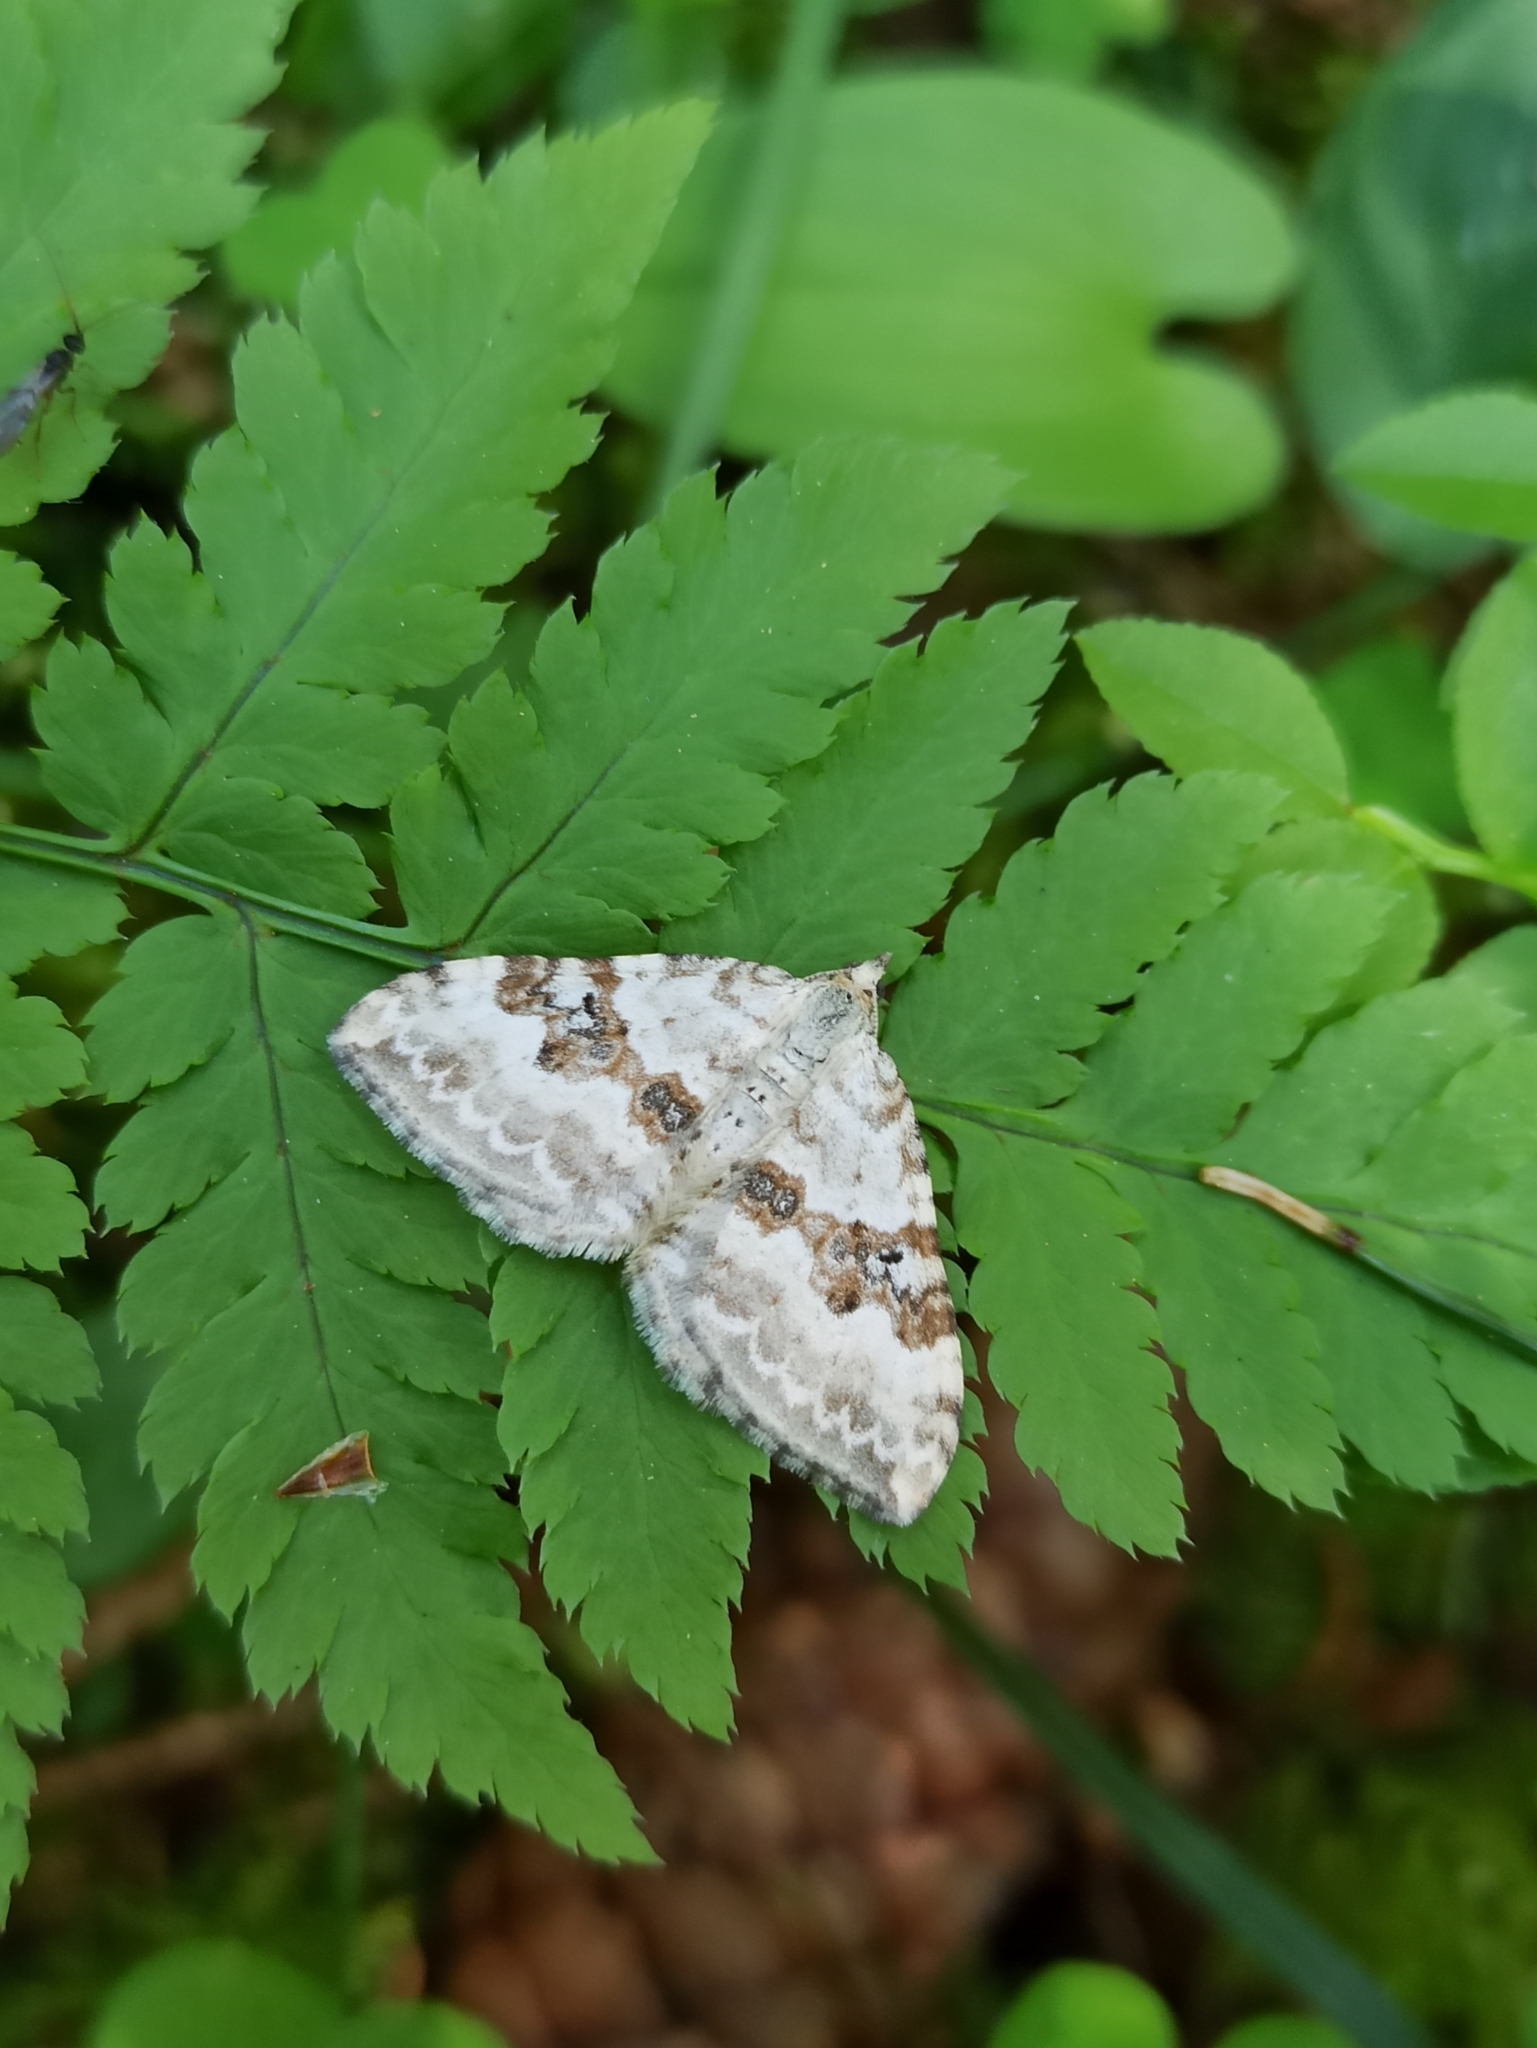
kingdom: Animalia
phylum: Arthropoda
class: Insecta
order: Lepidoptera
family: Geometridae
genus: Xanthorhoe
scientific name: Xanthorhoe montanata
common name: Silver-ground carpet
